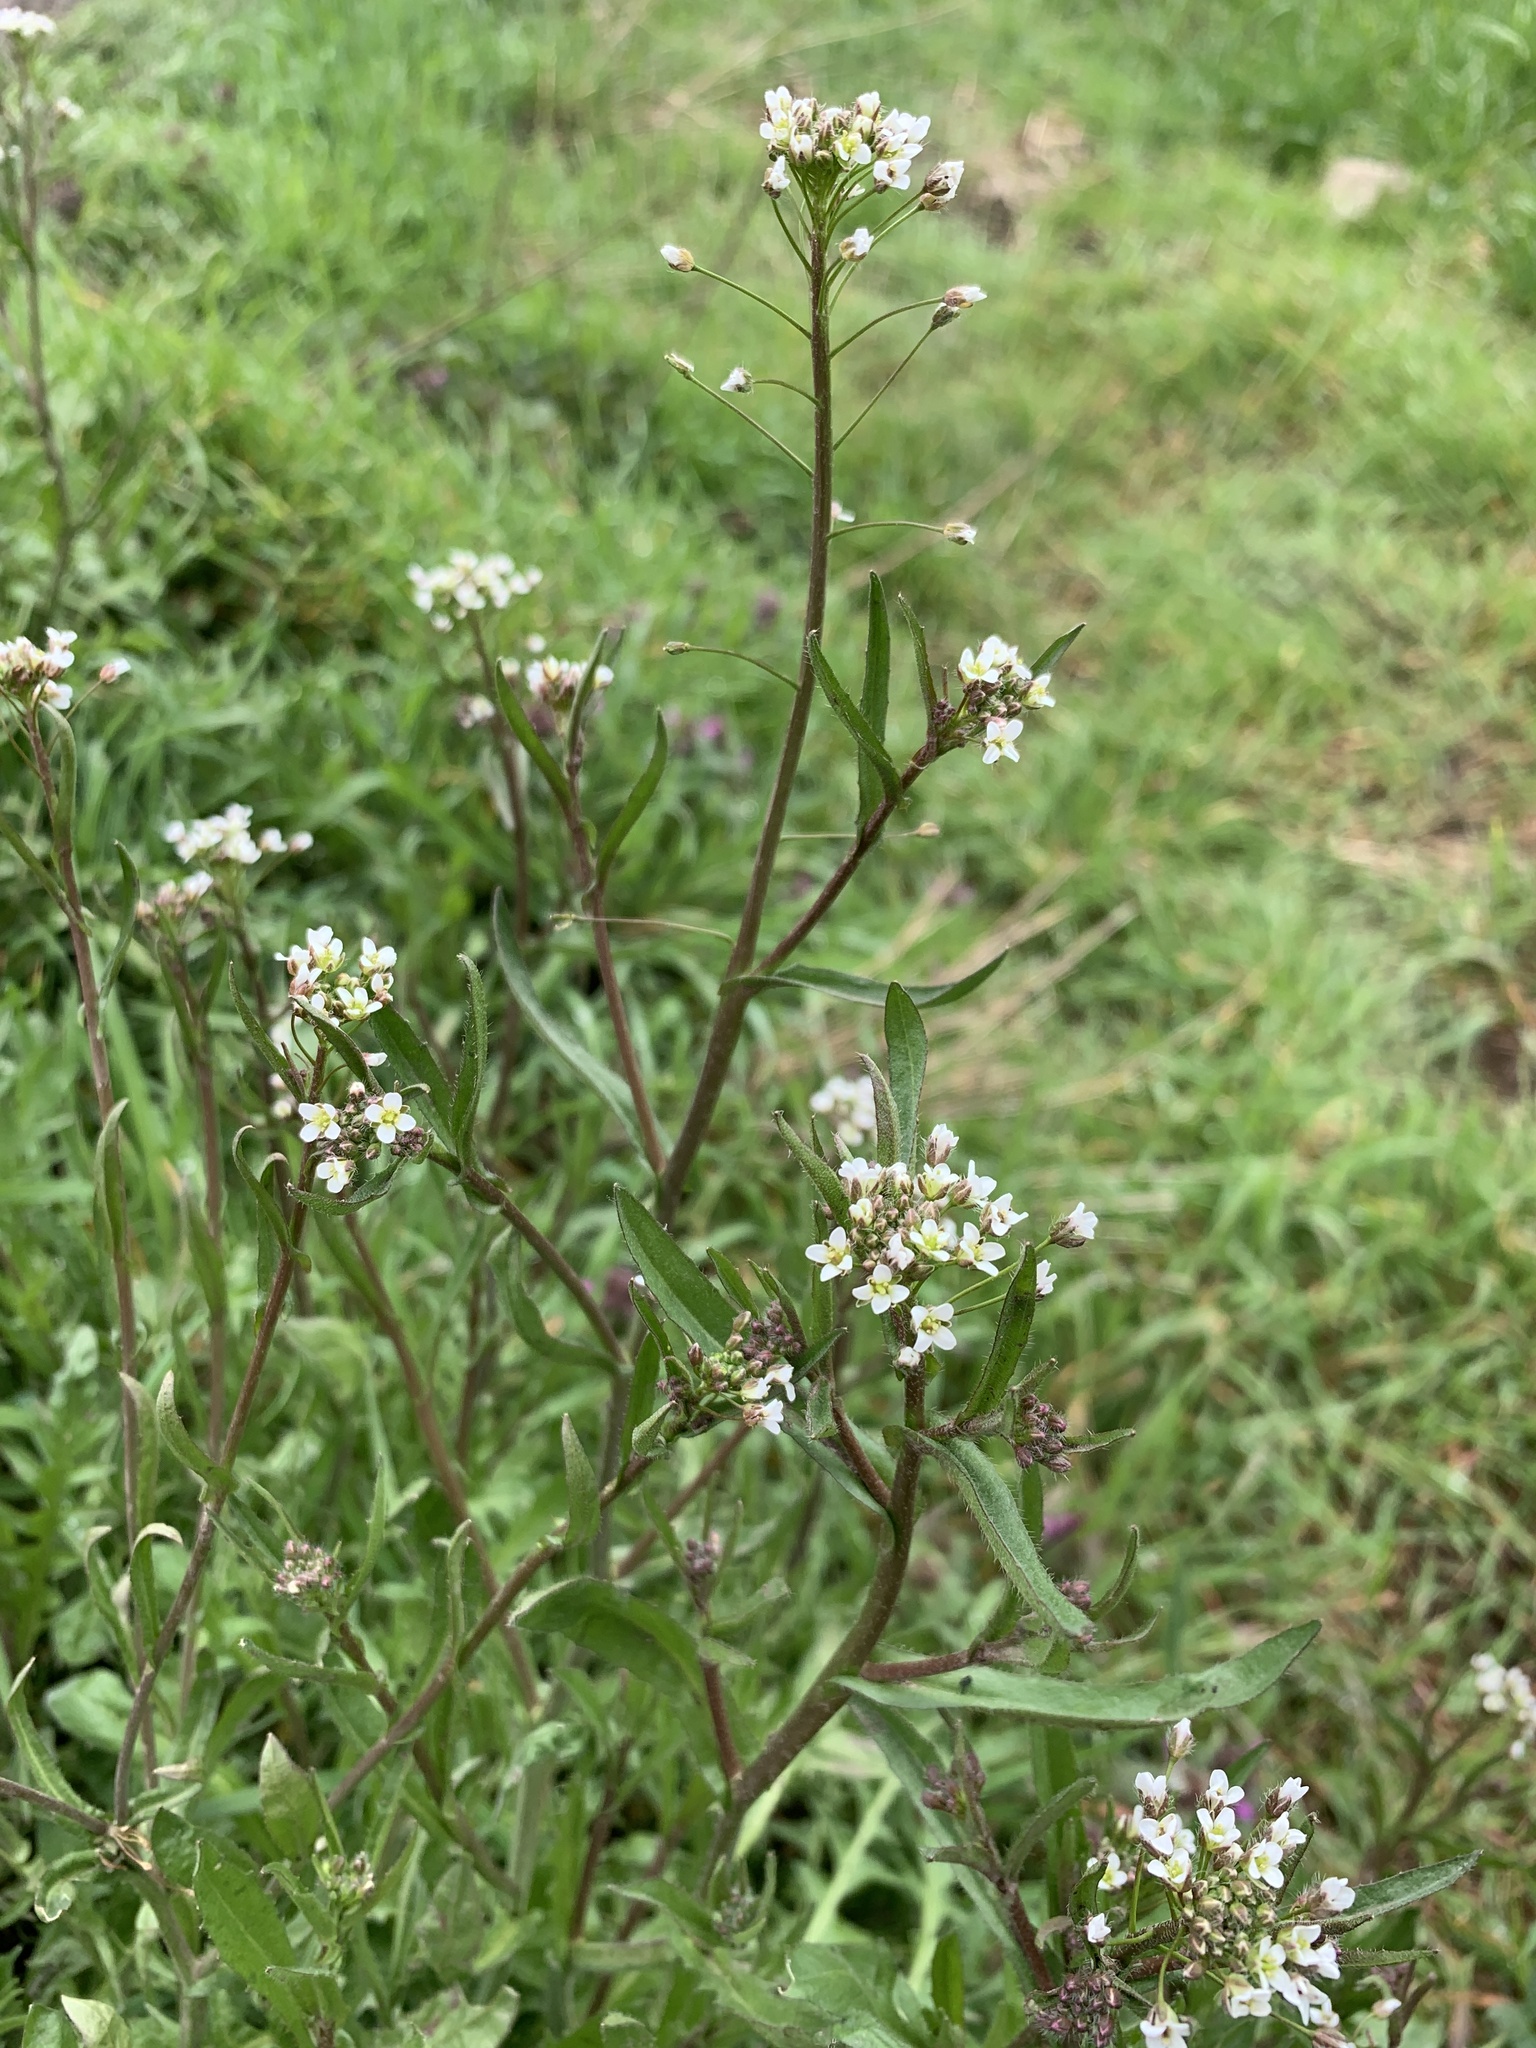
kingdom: Plantae
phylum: Tracheophyta
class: Magnoliopsida
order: Brassicales
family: Brassicaceae
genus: Capsella
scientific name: Capsella bursa-pastoris
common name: Shepherd's purse
